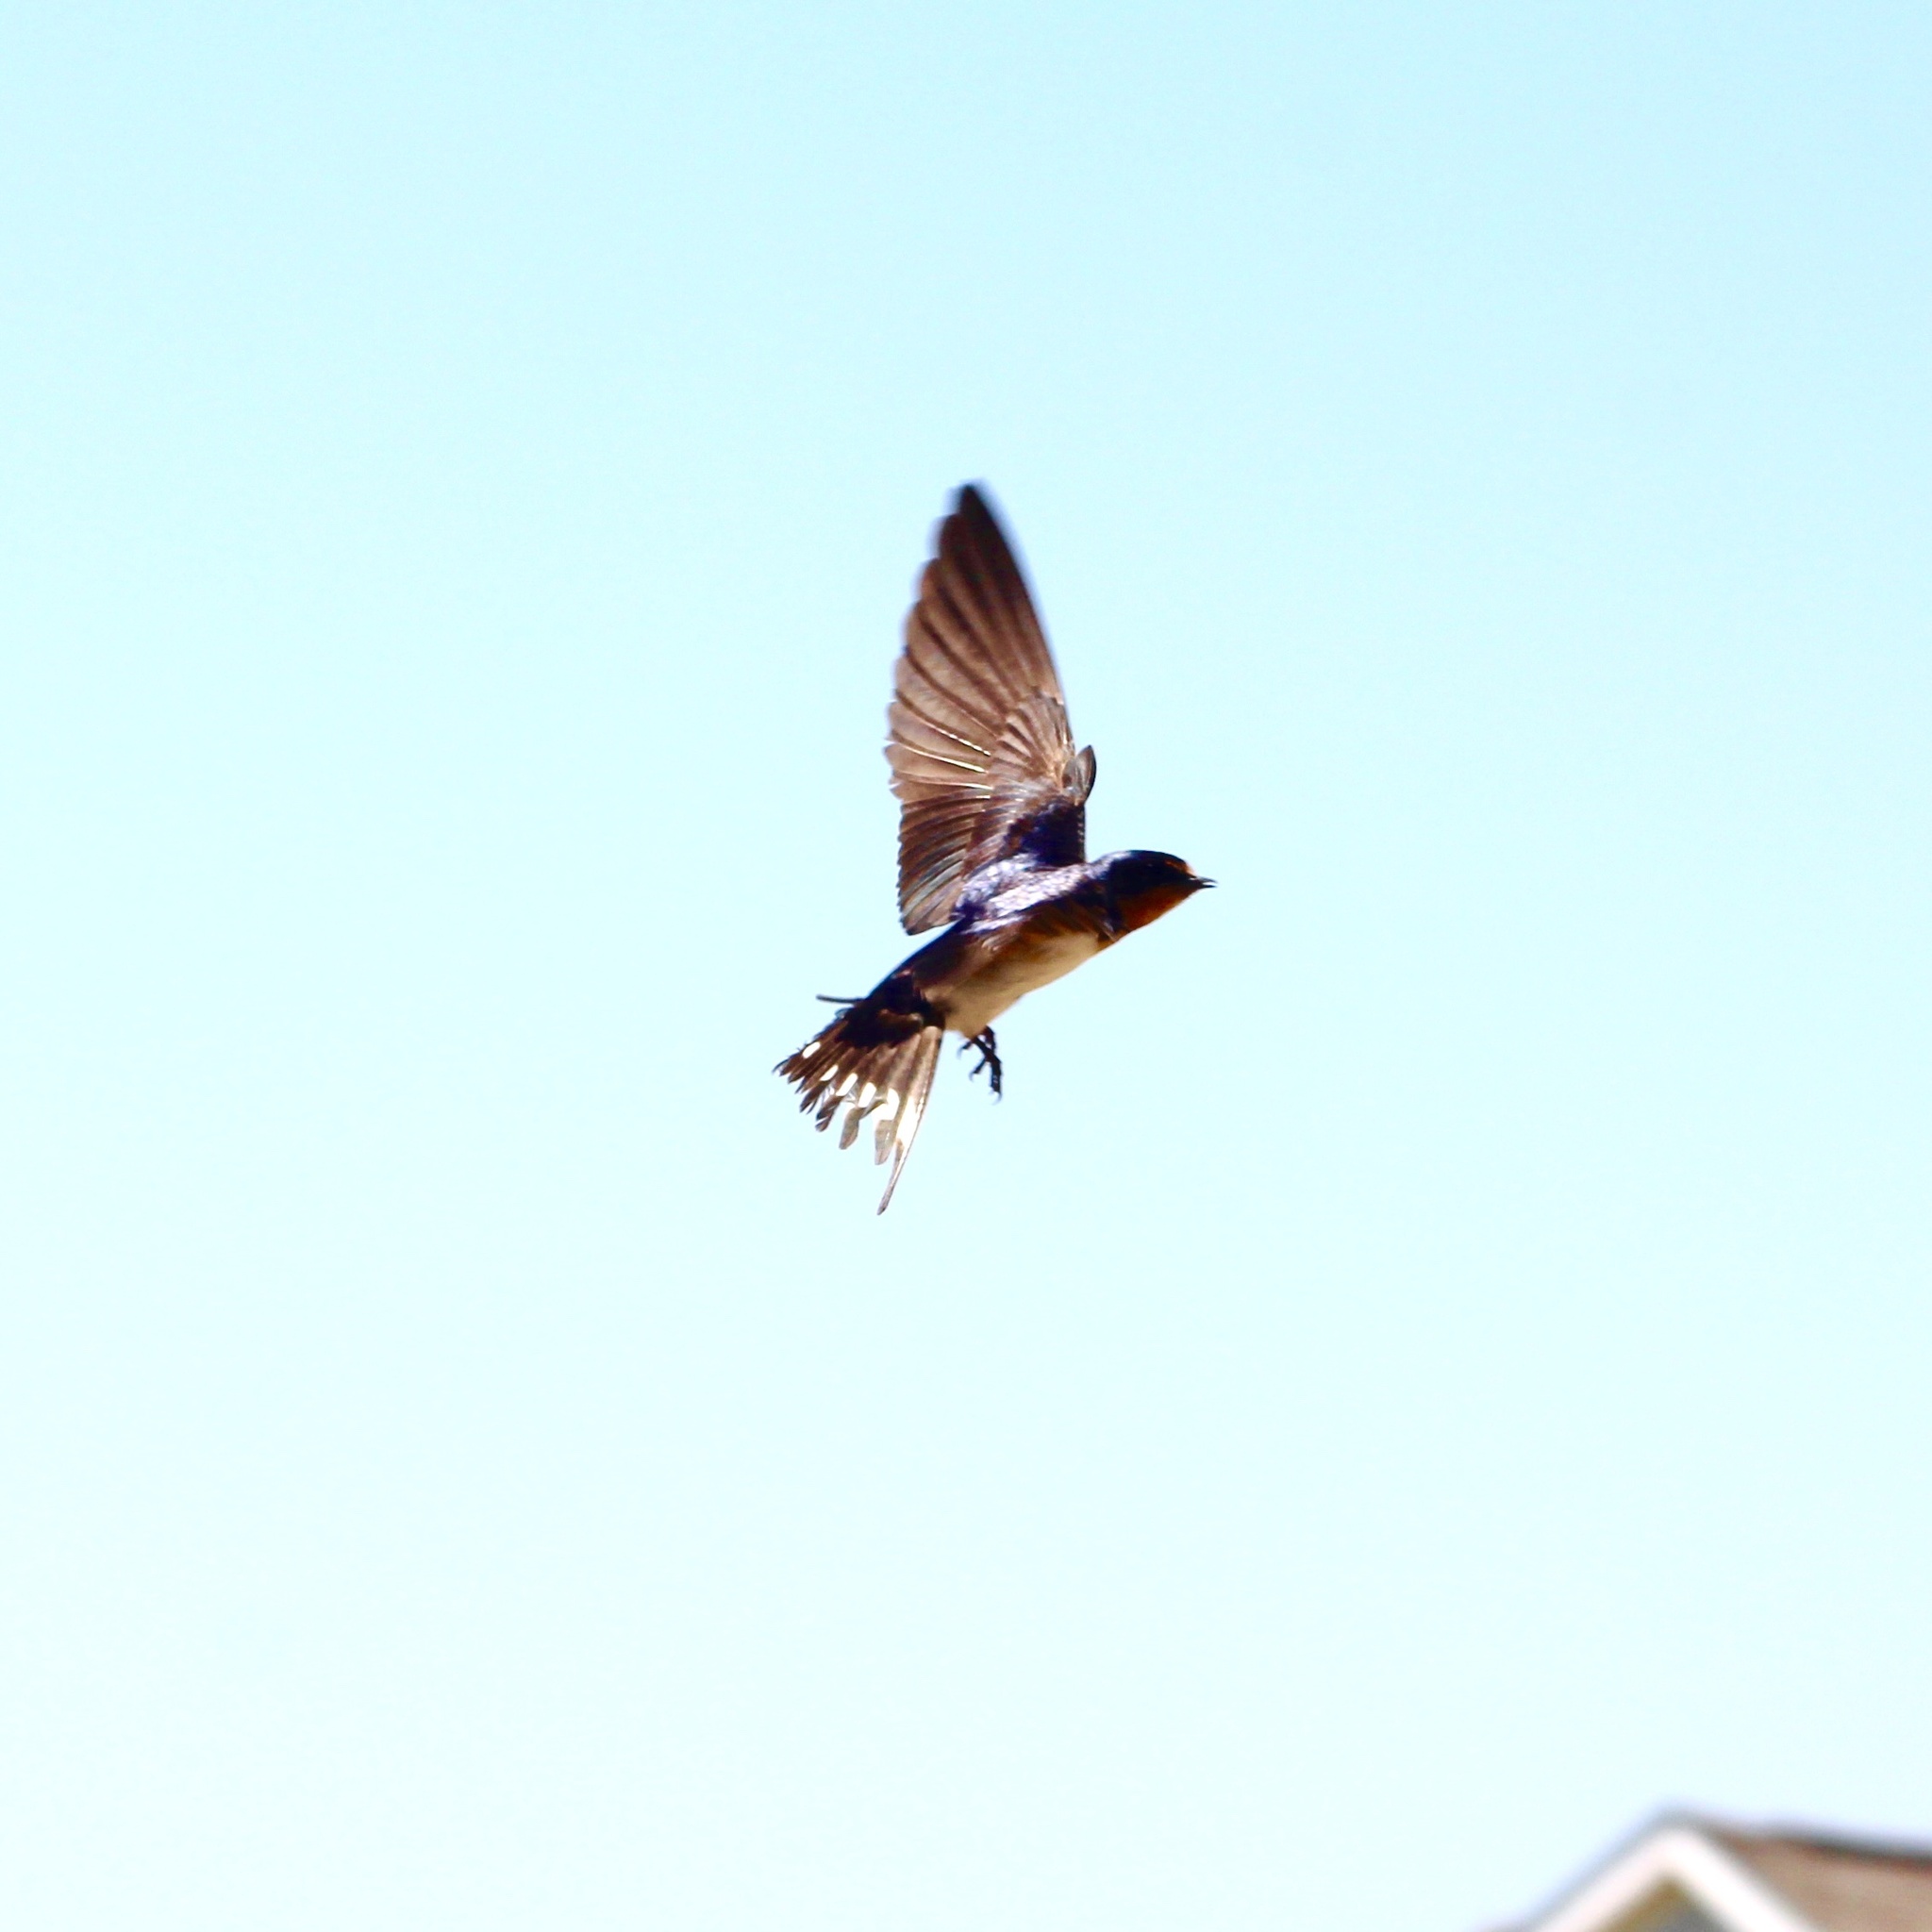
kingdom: Animalia
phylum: Chordata
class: Aves
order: Passeriformes
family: Hirundinidae
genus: Hirundo
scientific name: Hirundo rustica
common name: Barn swallow
